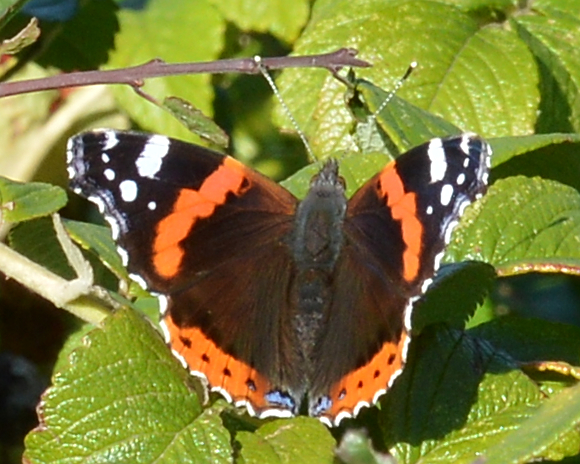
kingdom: Animalia
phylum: Arthropoda
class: Insecta
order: Lepidoptera
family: Nymphalidae
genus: Vanessa
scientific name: Vanessa atalanta
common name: Red admiral
